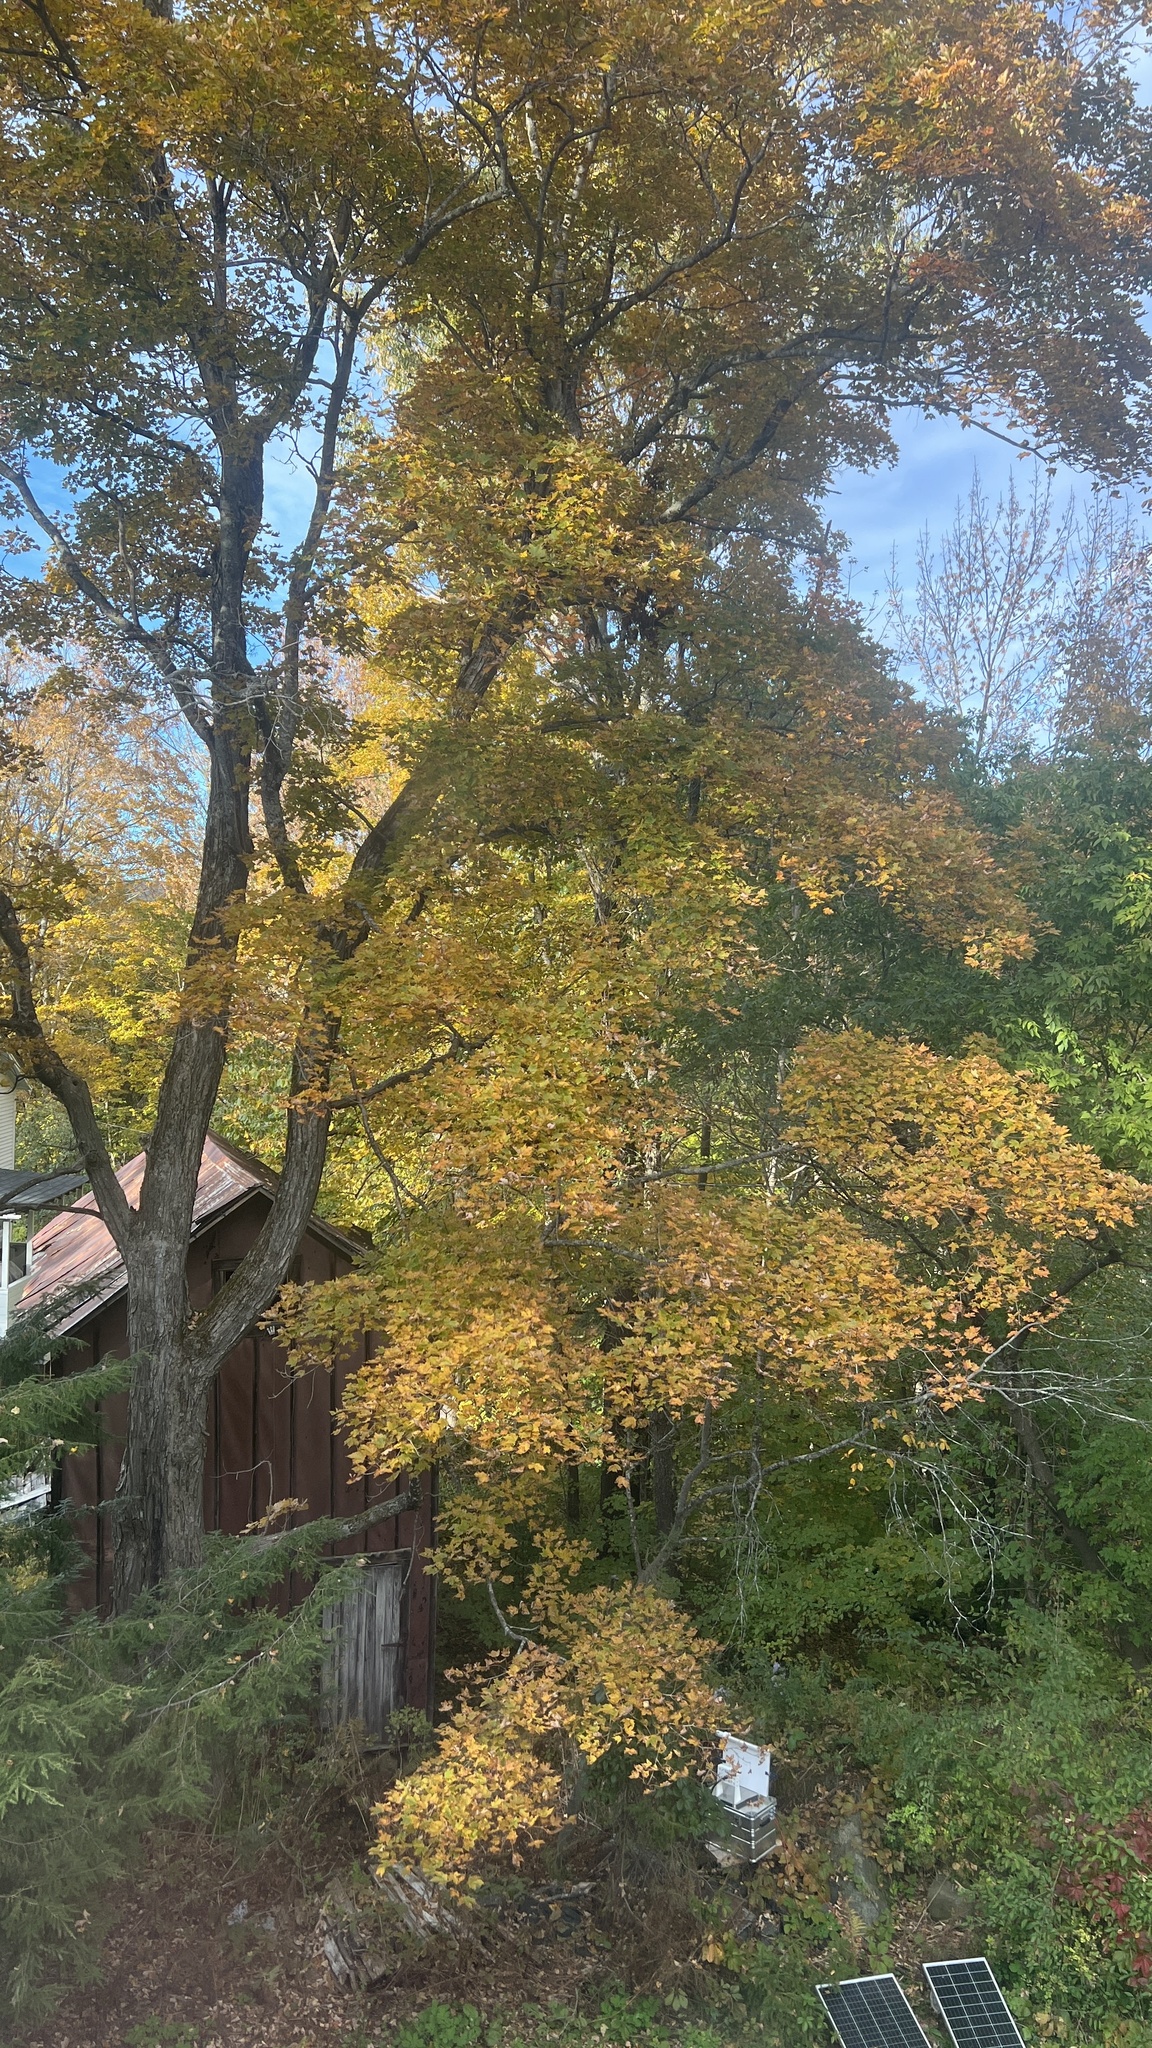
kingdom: Plantae
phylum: Tracheophyta
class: Magnoliopsida
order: Sapindales
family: Sapindaceae
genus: Acer
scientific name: Acer saccharum
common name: Sugar maple
